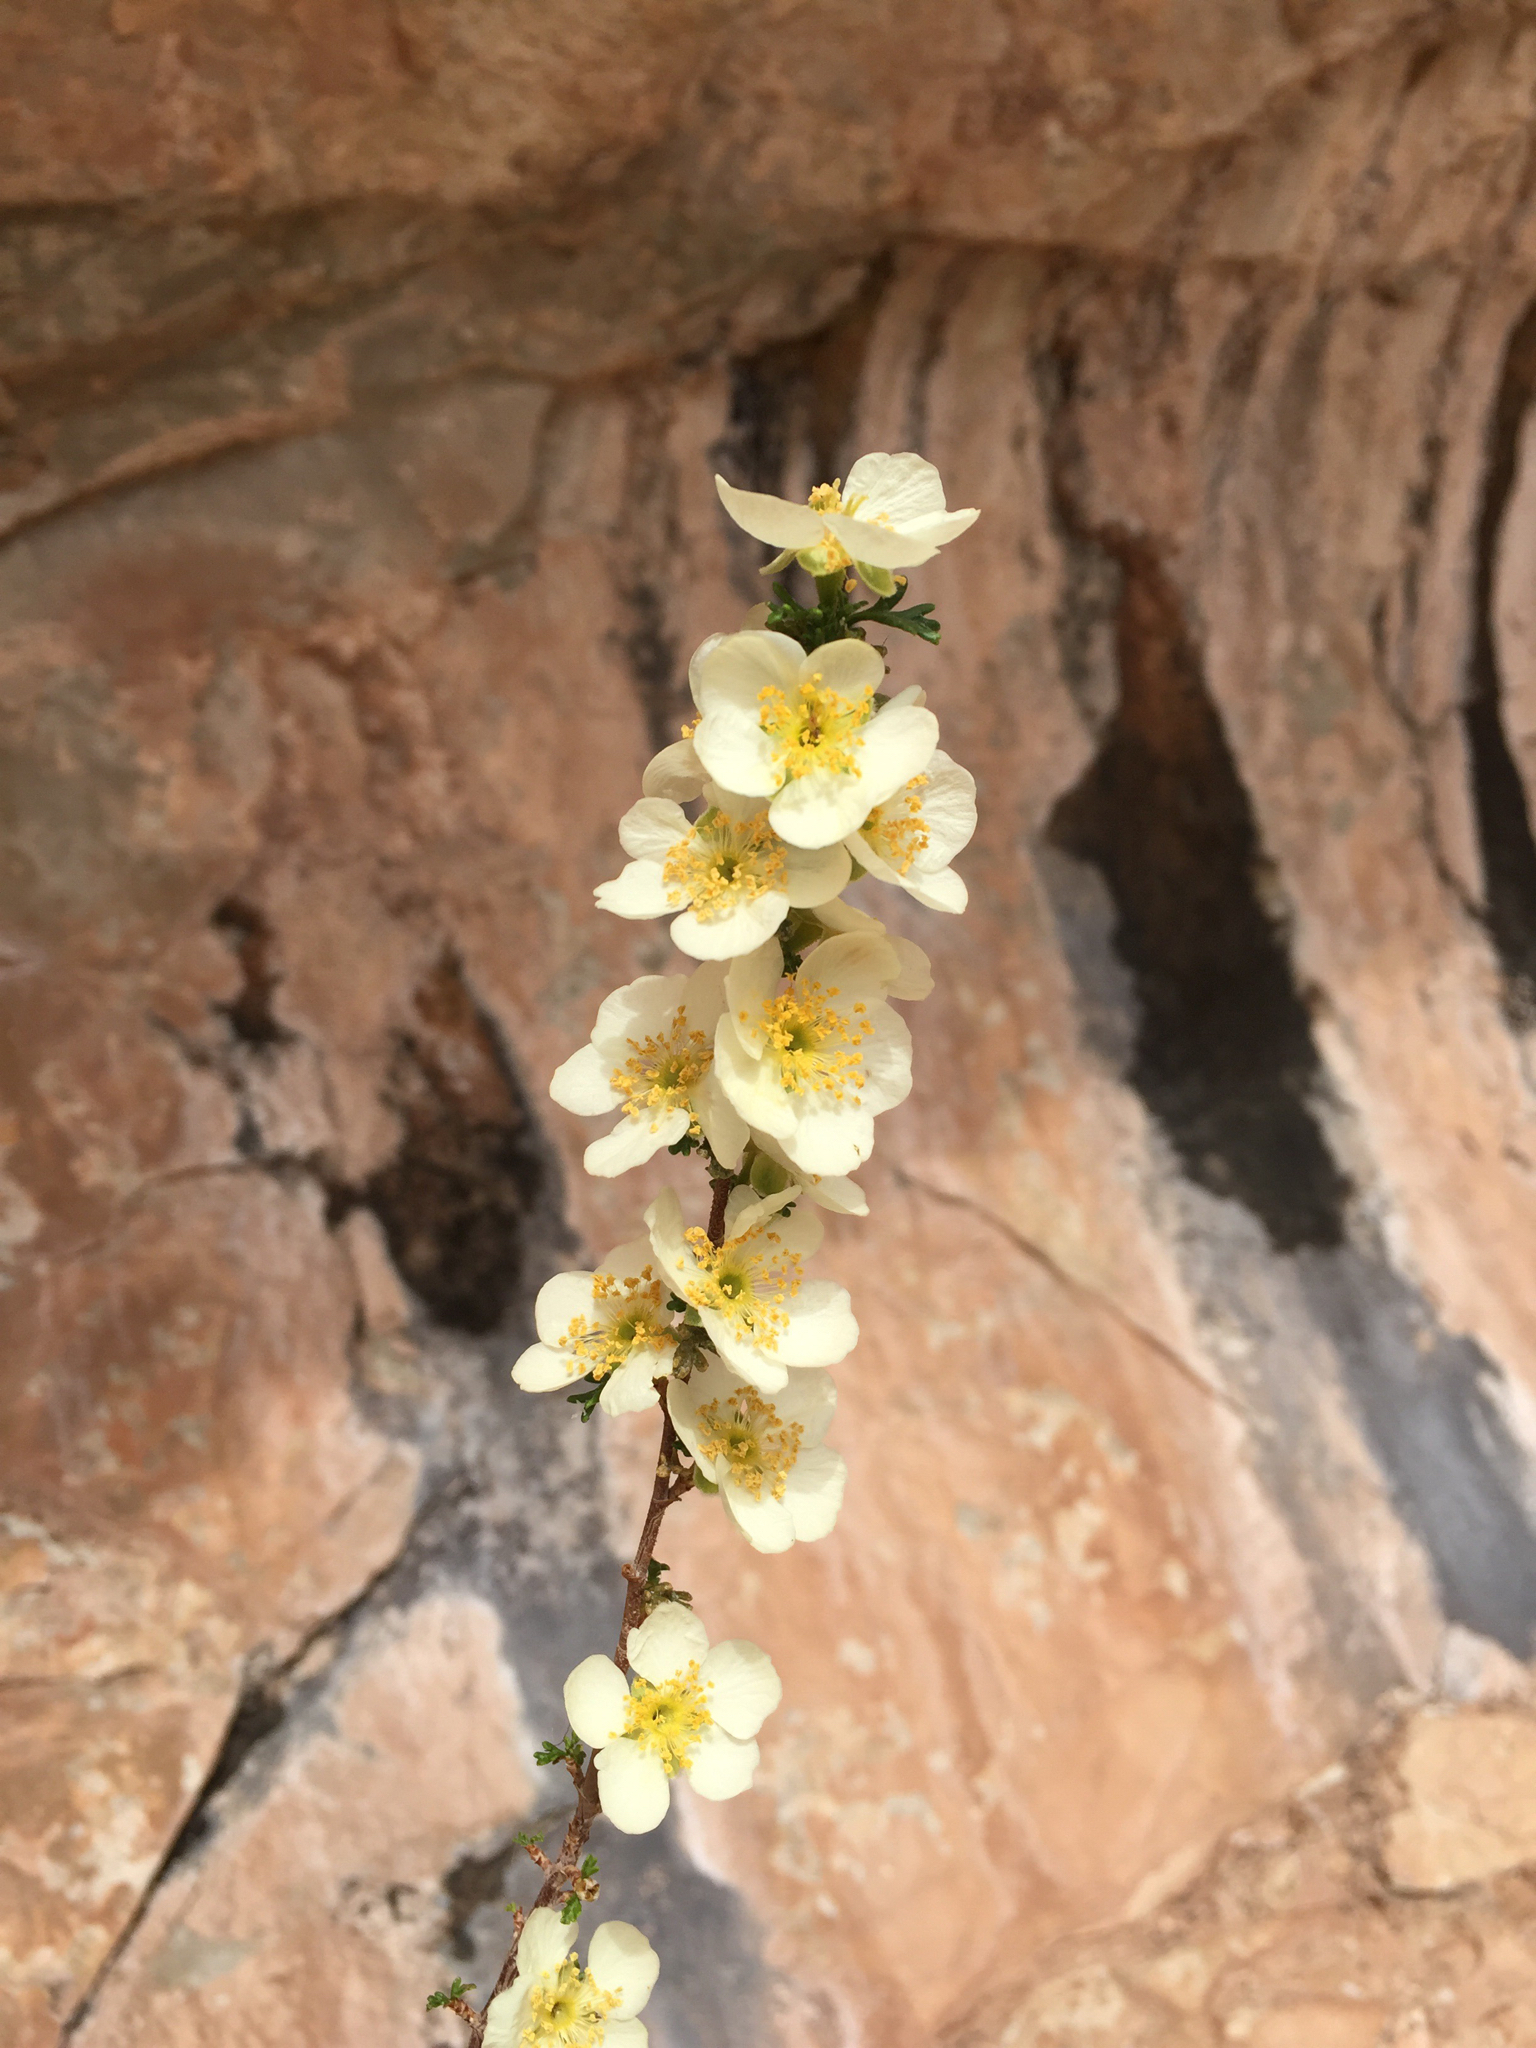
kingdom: Plantae
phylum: Tracheophyta
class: Magnoliopsida
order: Rosales
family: Rosaceae
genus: Purshia
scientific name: Purshia stansburiana
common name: Stansbury's cliffrose
